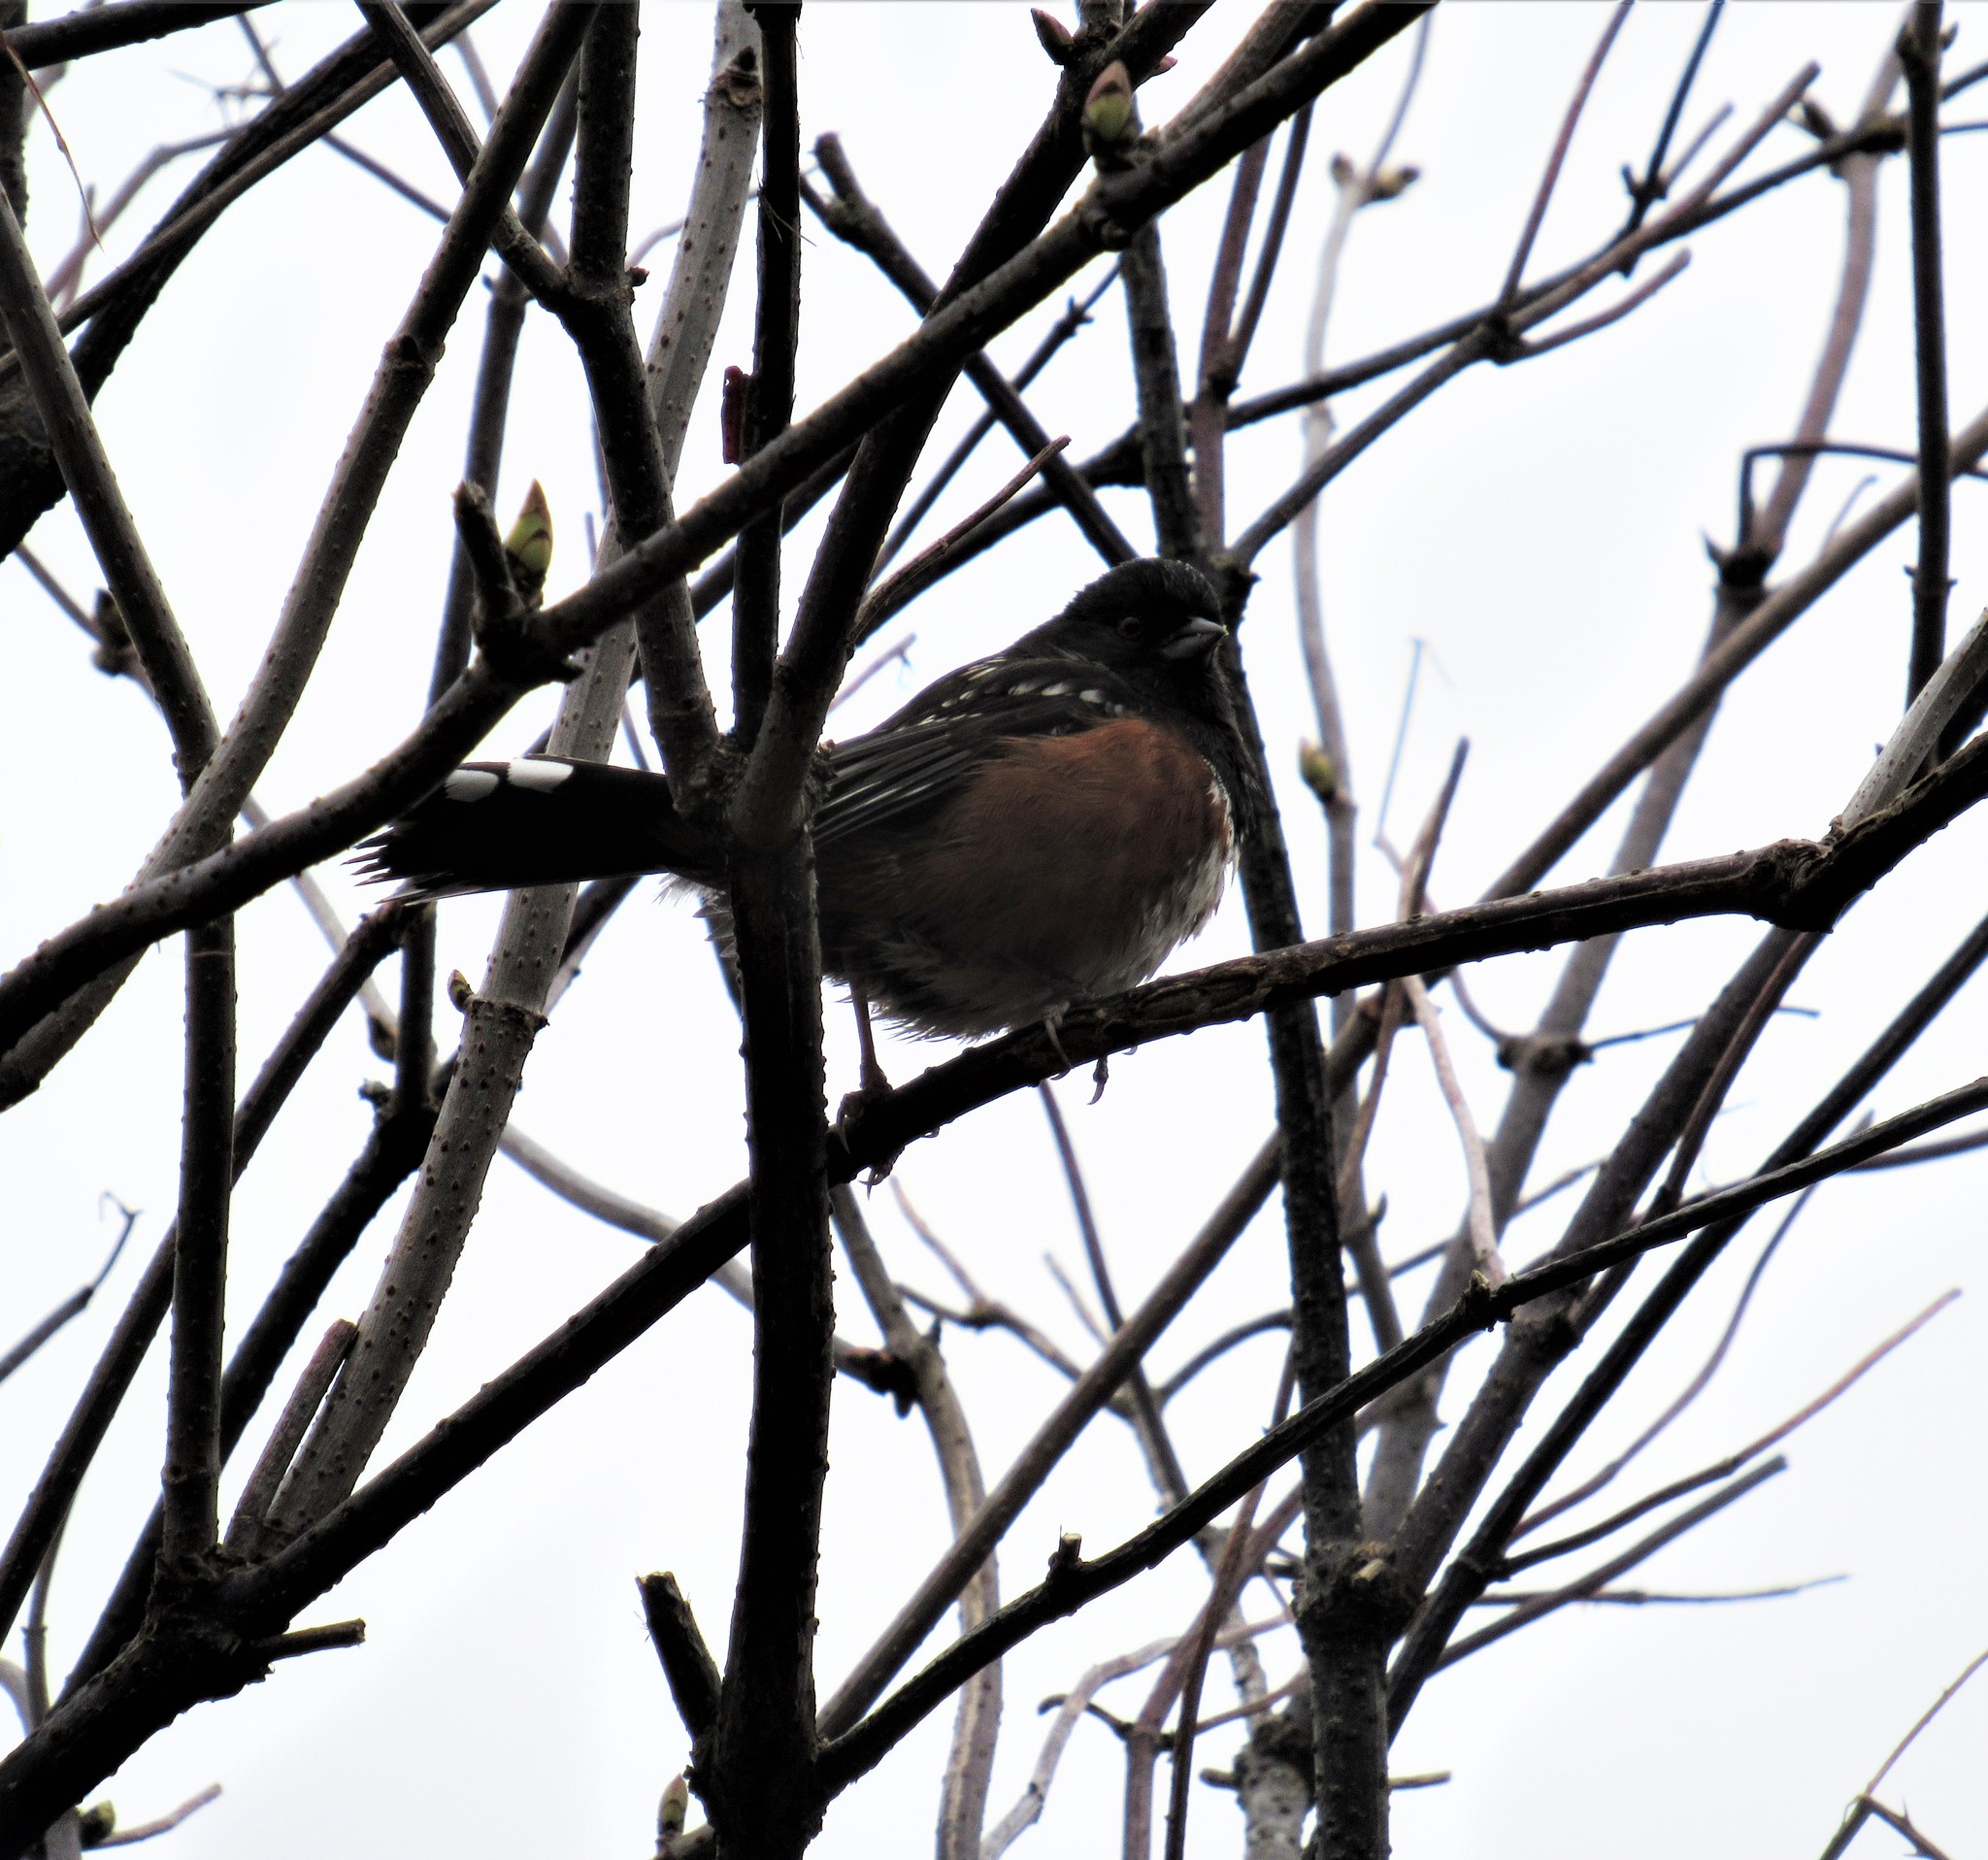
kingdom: Animalia
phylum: Chordata
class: Aves
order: Passeriformes
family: Passerellidae
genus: Pipilo
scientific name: Pipilo maculatus
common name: Spotted towhee
